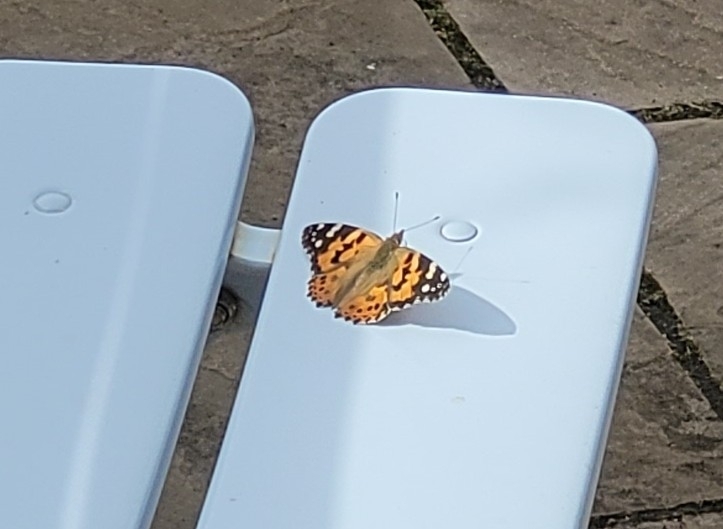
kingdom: Animalia
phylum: Arthropoda
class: Insecta
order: Lepidoptera
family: Nymphalidae
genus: Vanessa
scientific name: Vanessa cardui
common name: Painted lady
